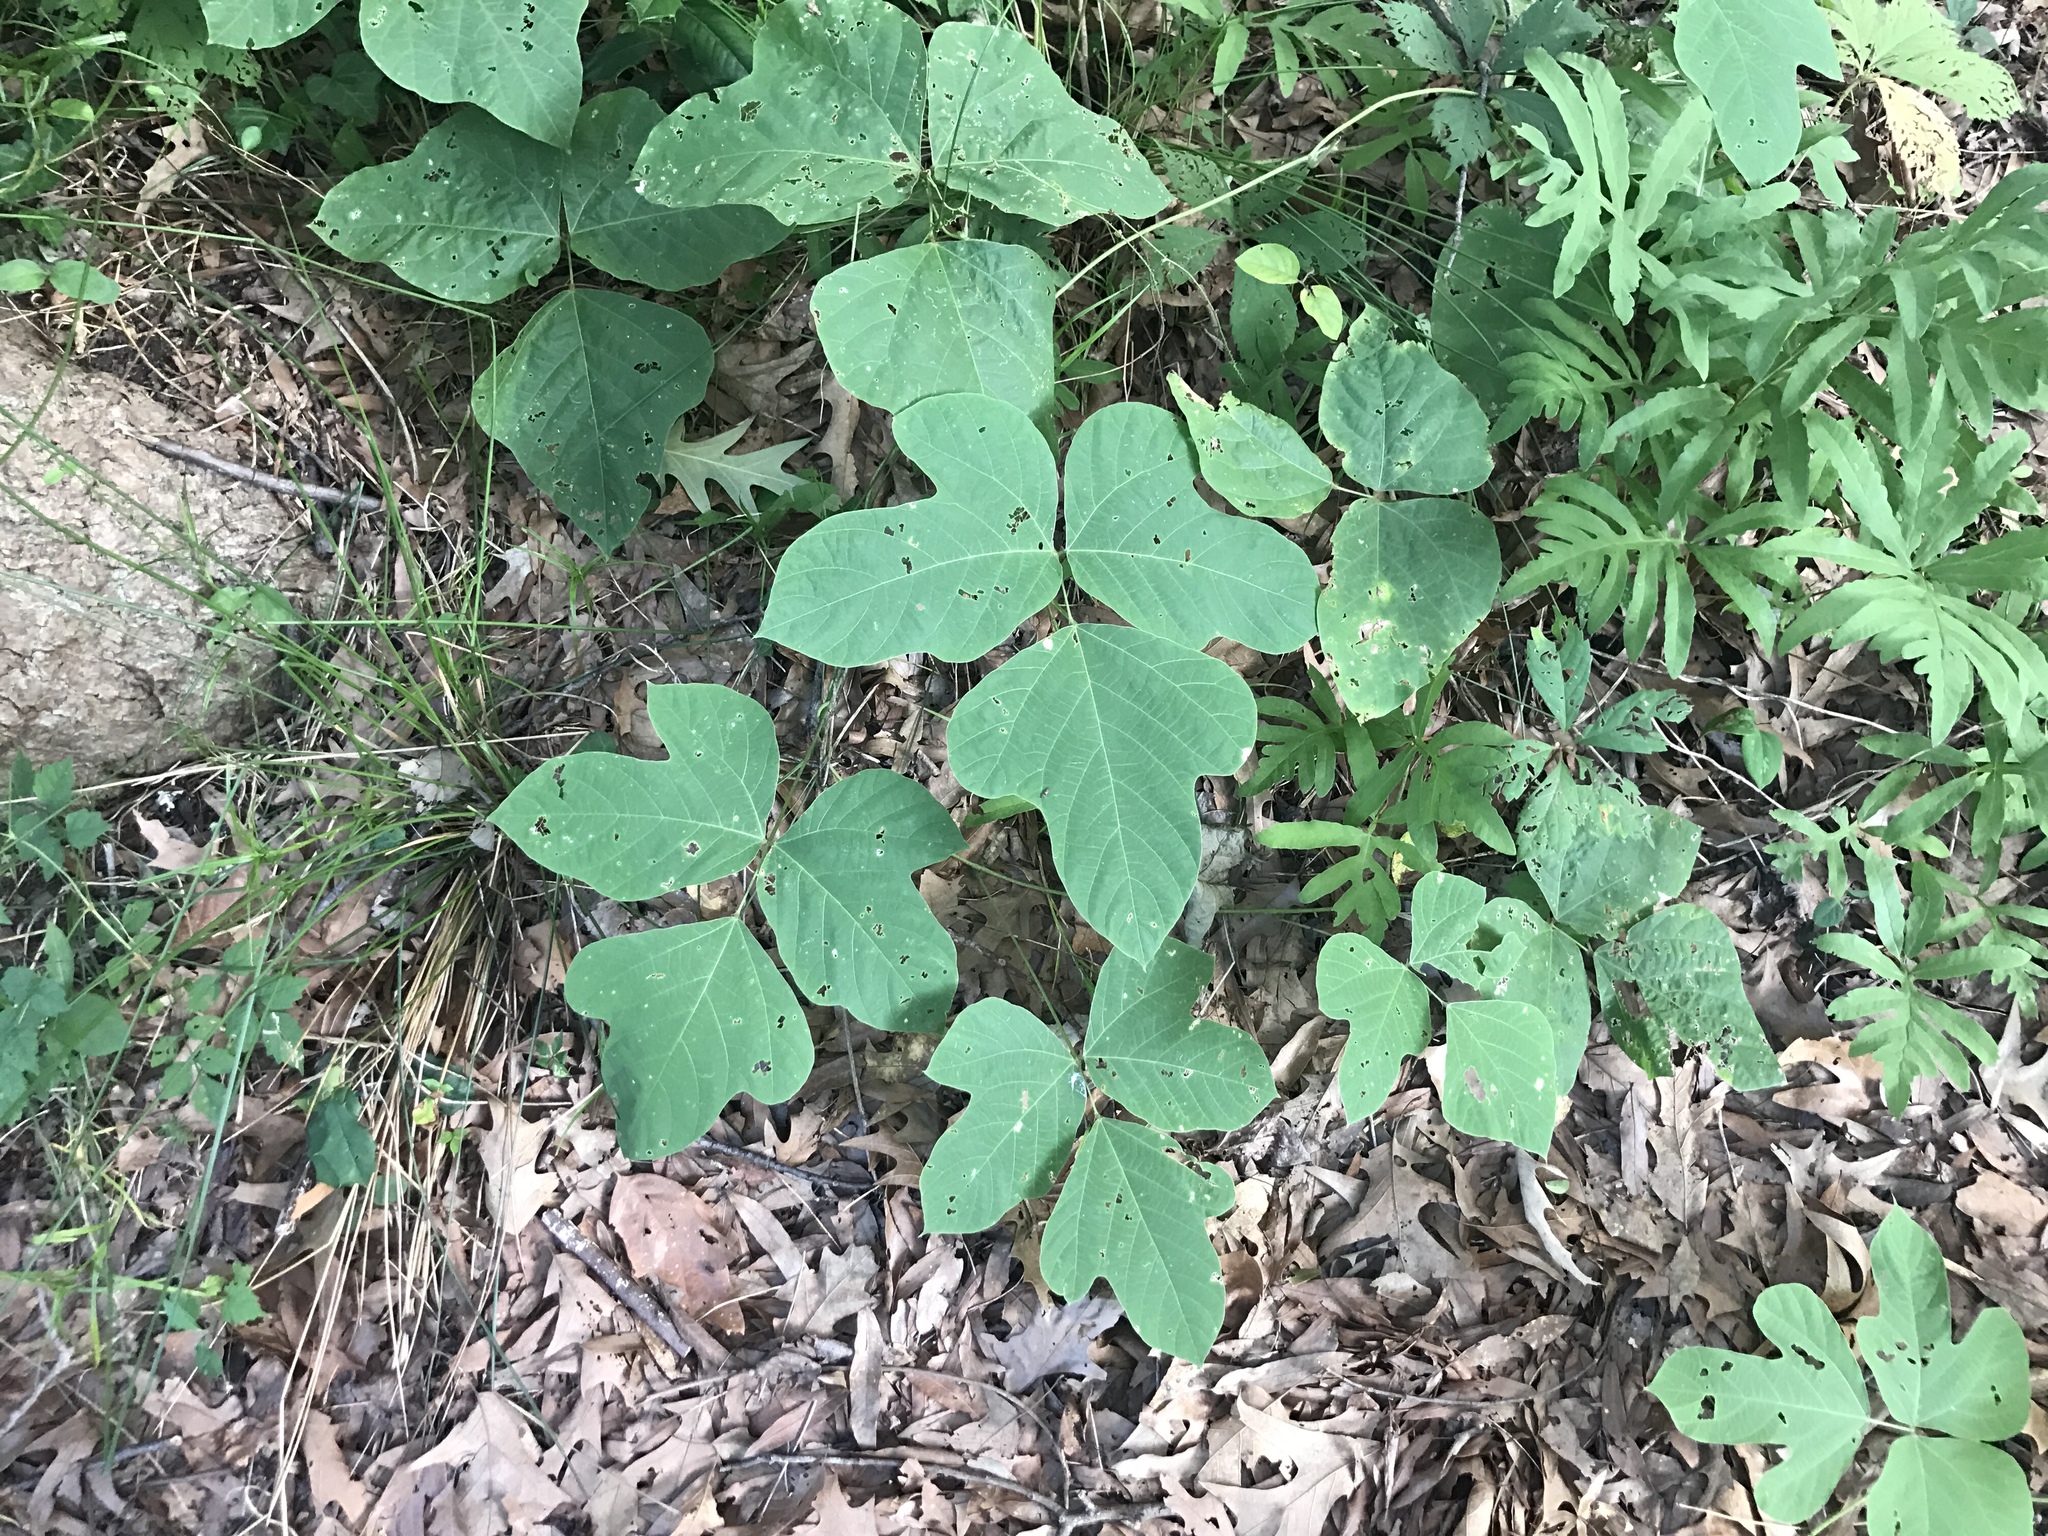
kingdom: Plantae
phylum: Tracheophyta
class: Magnoliopsida
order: Fabales
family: Fabaceae
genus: Pueraria
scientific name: Pueraria montana
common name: Kudzu
